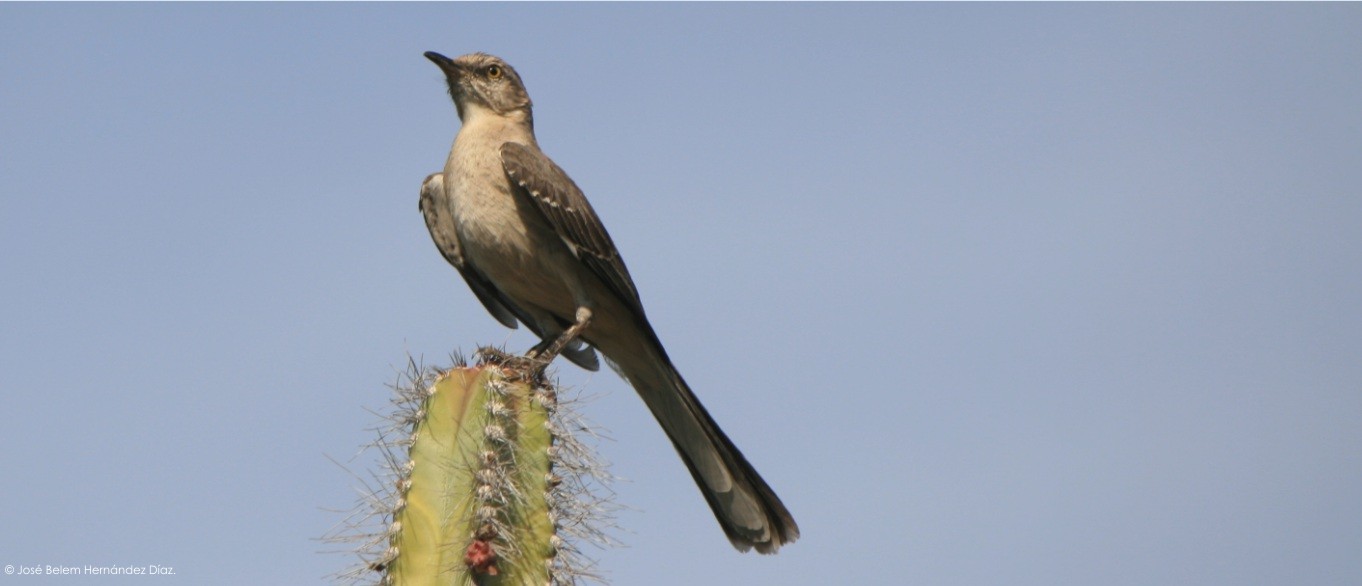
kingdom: Animalia
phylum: Chordata
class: Aves
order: Passeriformes
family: Mimidae
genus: Mimus
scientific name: Mimus polyglottos
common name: Northern mockingbird
